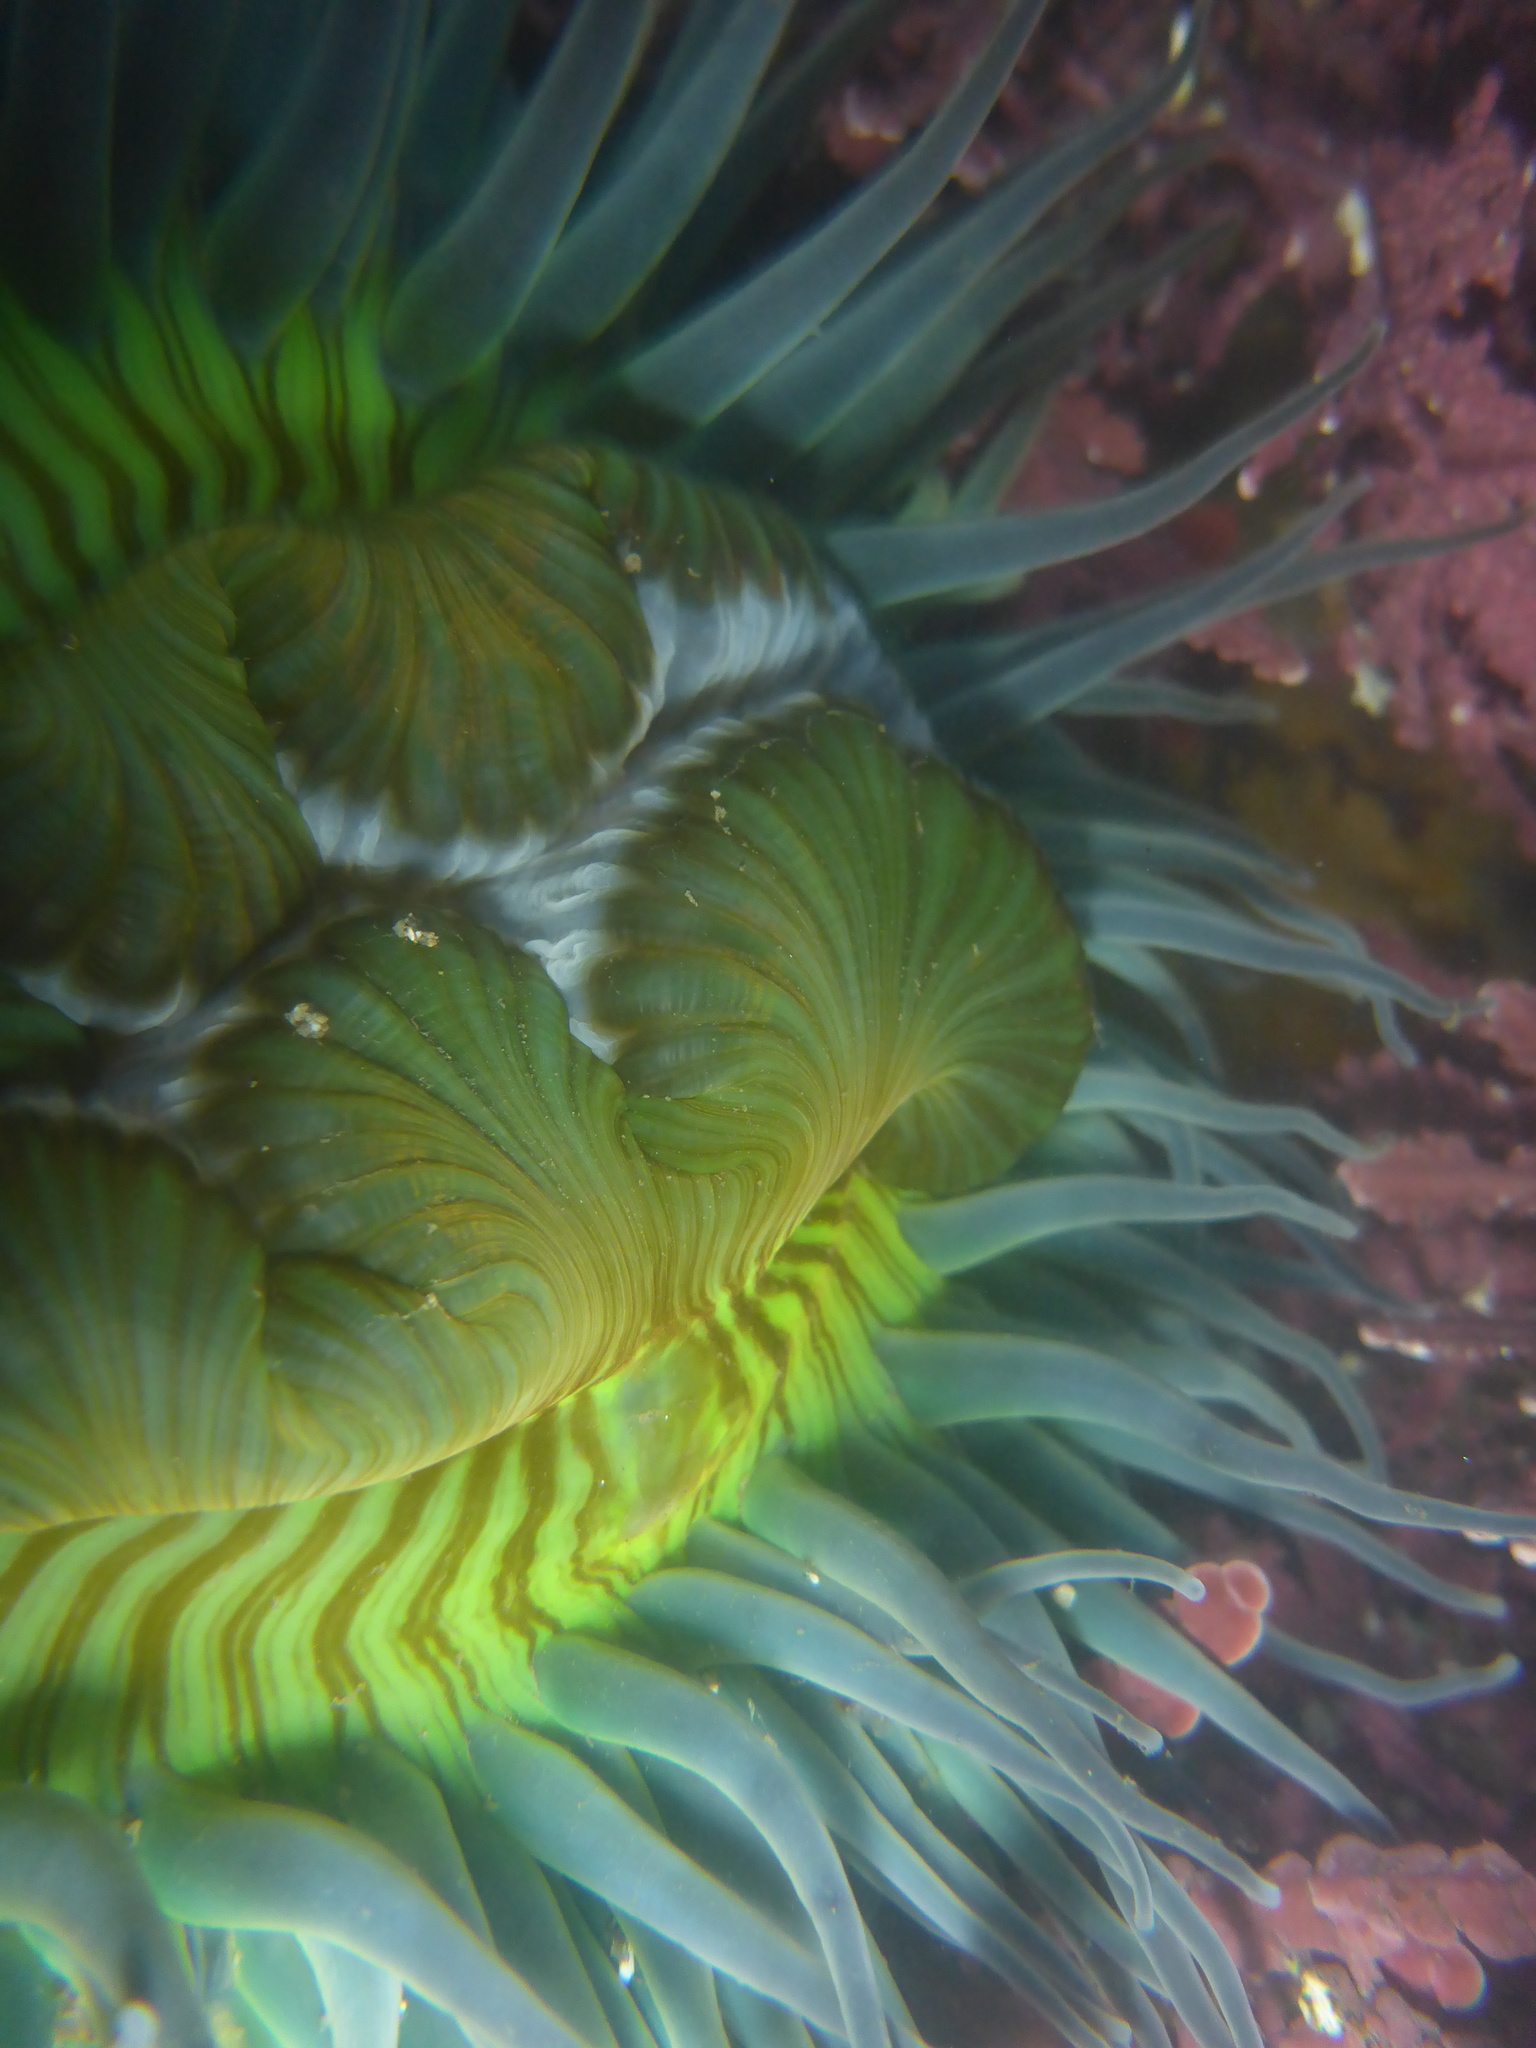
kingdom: Animalia
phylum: Cnidaria
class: Anthozoa
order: Actiniaria
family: Actiniidae
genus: Anthopleura
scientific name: Anthopleura sola
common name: Sun anemone
